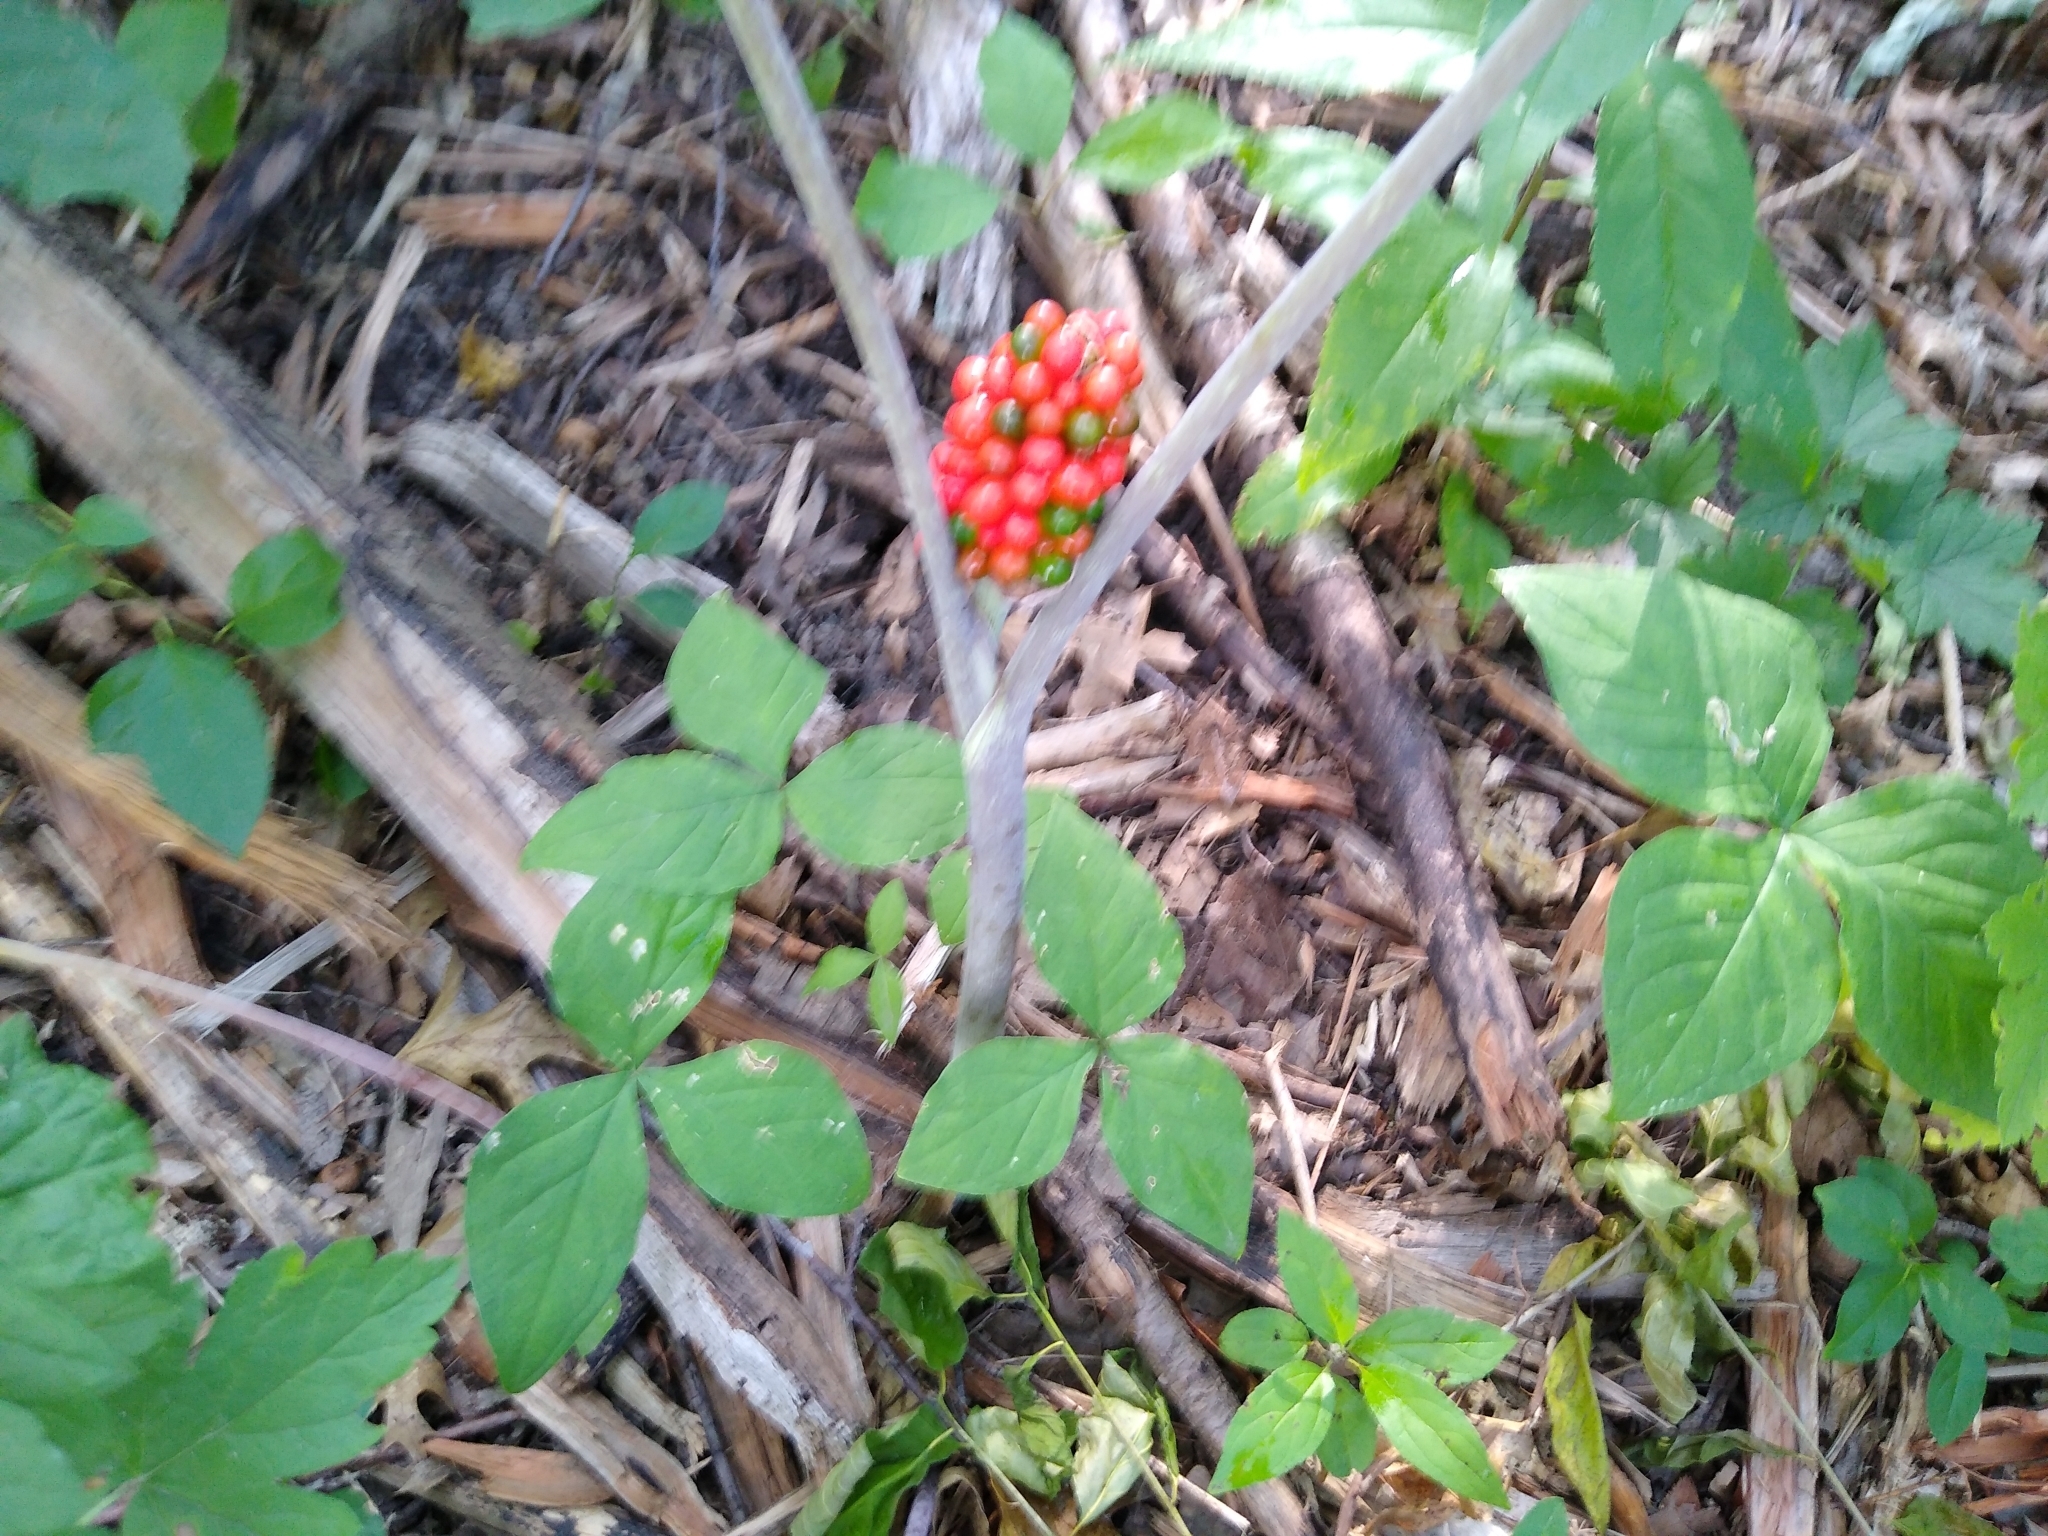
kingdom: Plantae
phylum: Tracheophyta
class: Liliopsida
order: Alismatales
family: Araceae
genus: Arisaema
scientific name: Arisaema triphyllum
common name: Jack-in-the-pulpit
